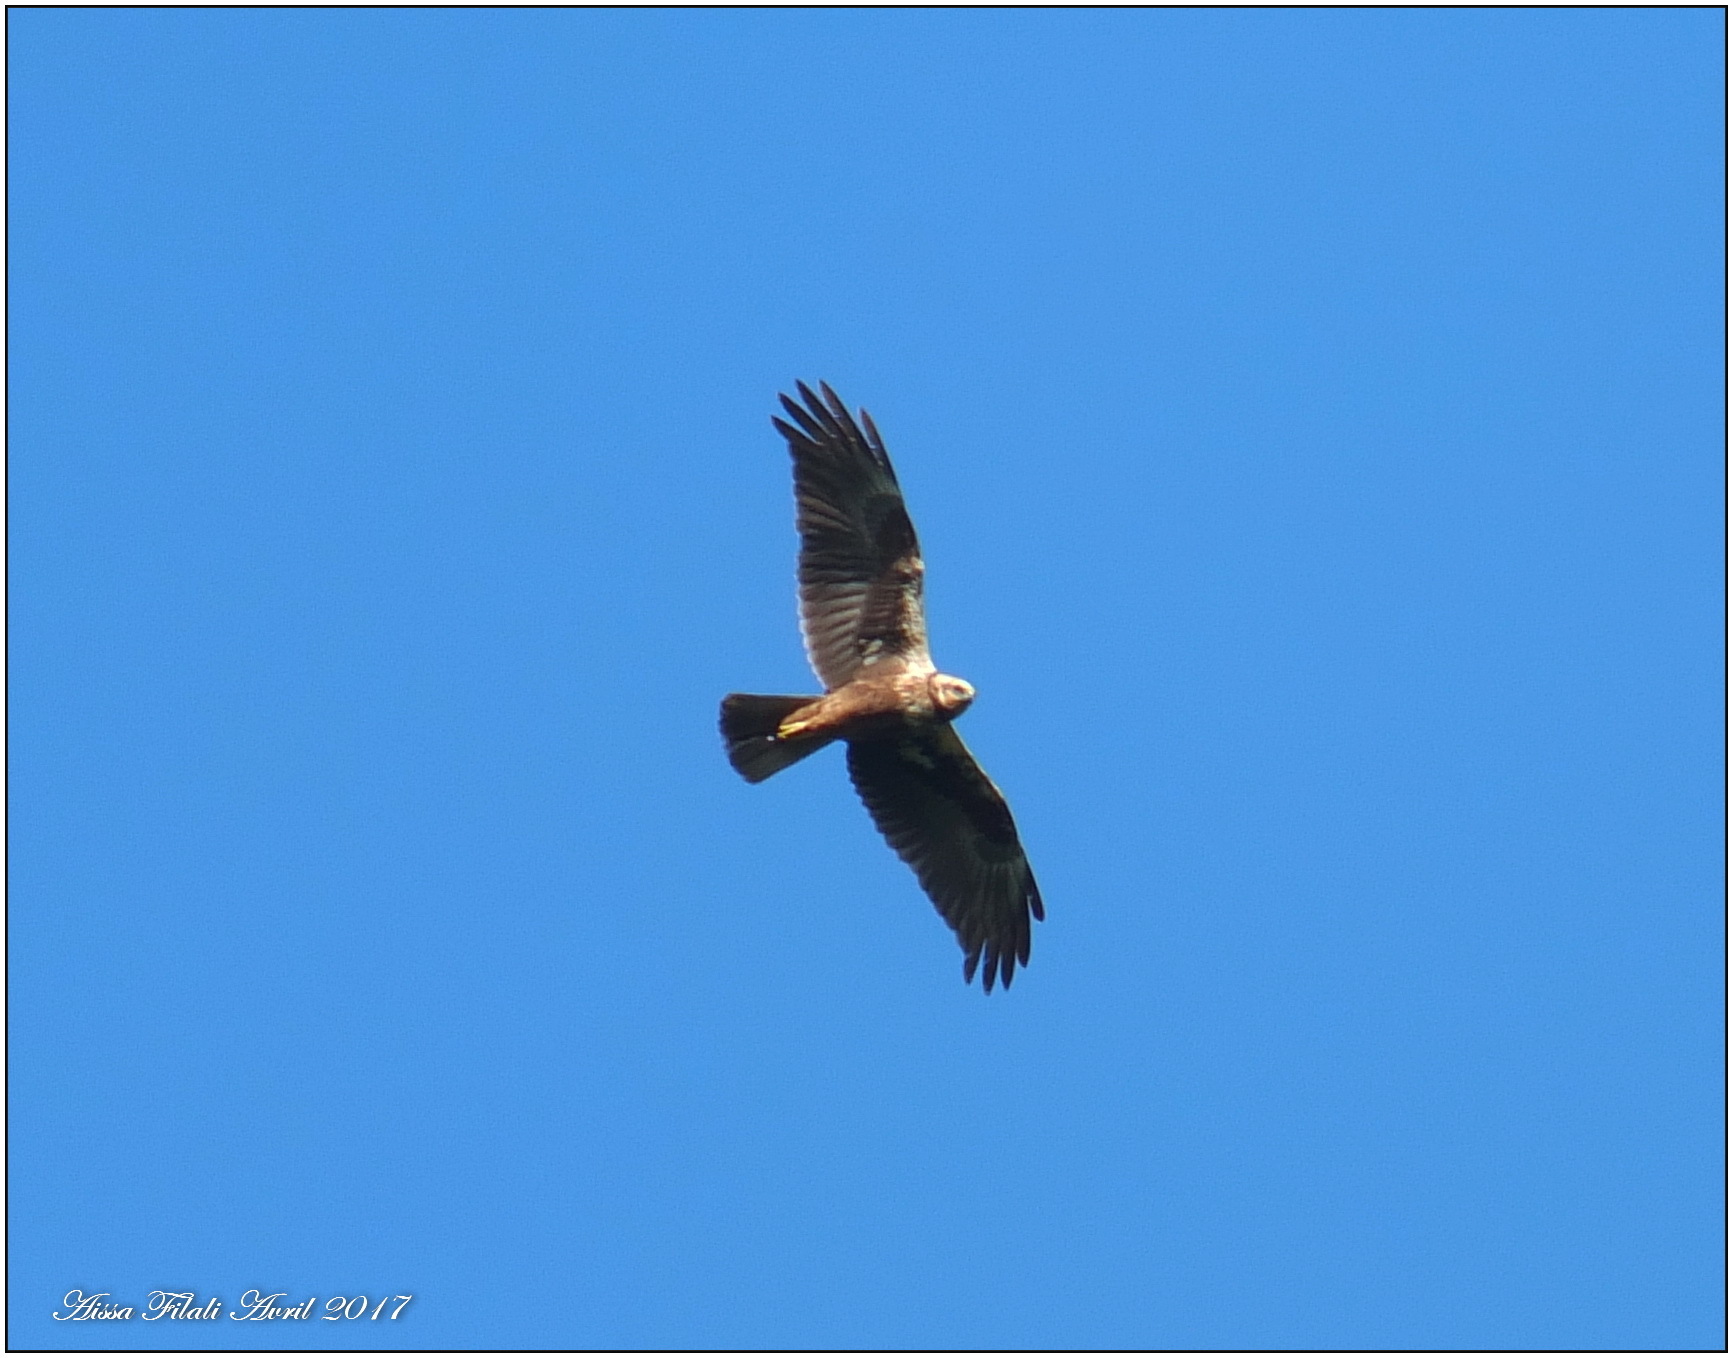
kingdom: Animalia
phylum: Chordata
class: Aves
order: Accipitriformes
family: Accipitridae
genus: Circus
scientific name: Circus aeruginosus
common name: Western marsh harrier
